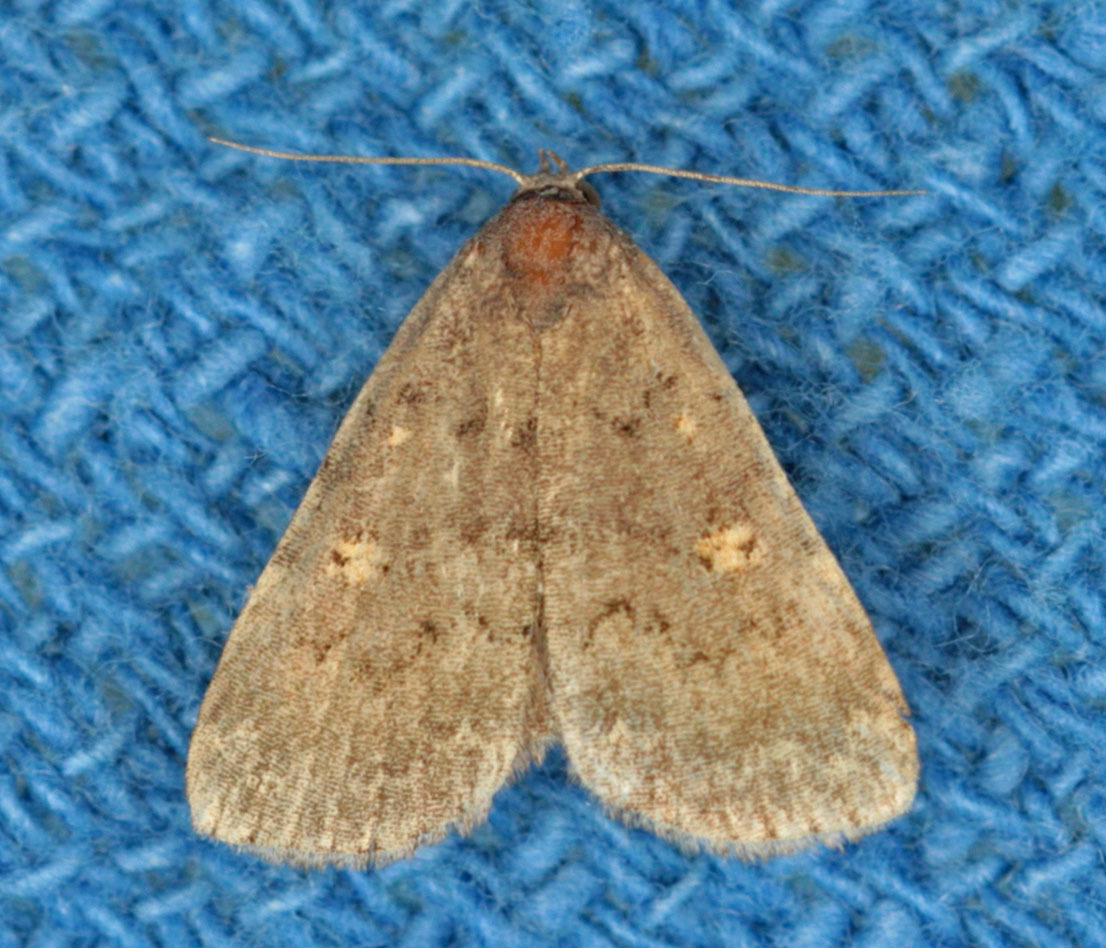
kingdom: Animalia
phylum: Arthropoda
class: Insecta
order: Lepidoptera
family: Erebidae
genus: Idia
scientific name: Idia aemula
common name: Common idia moth
